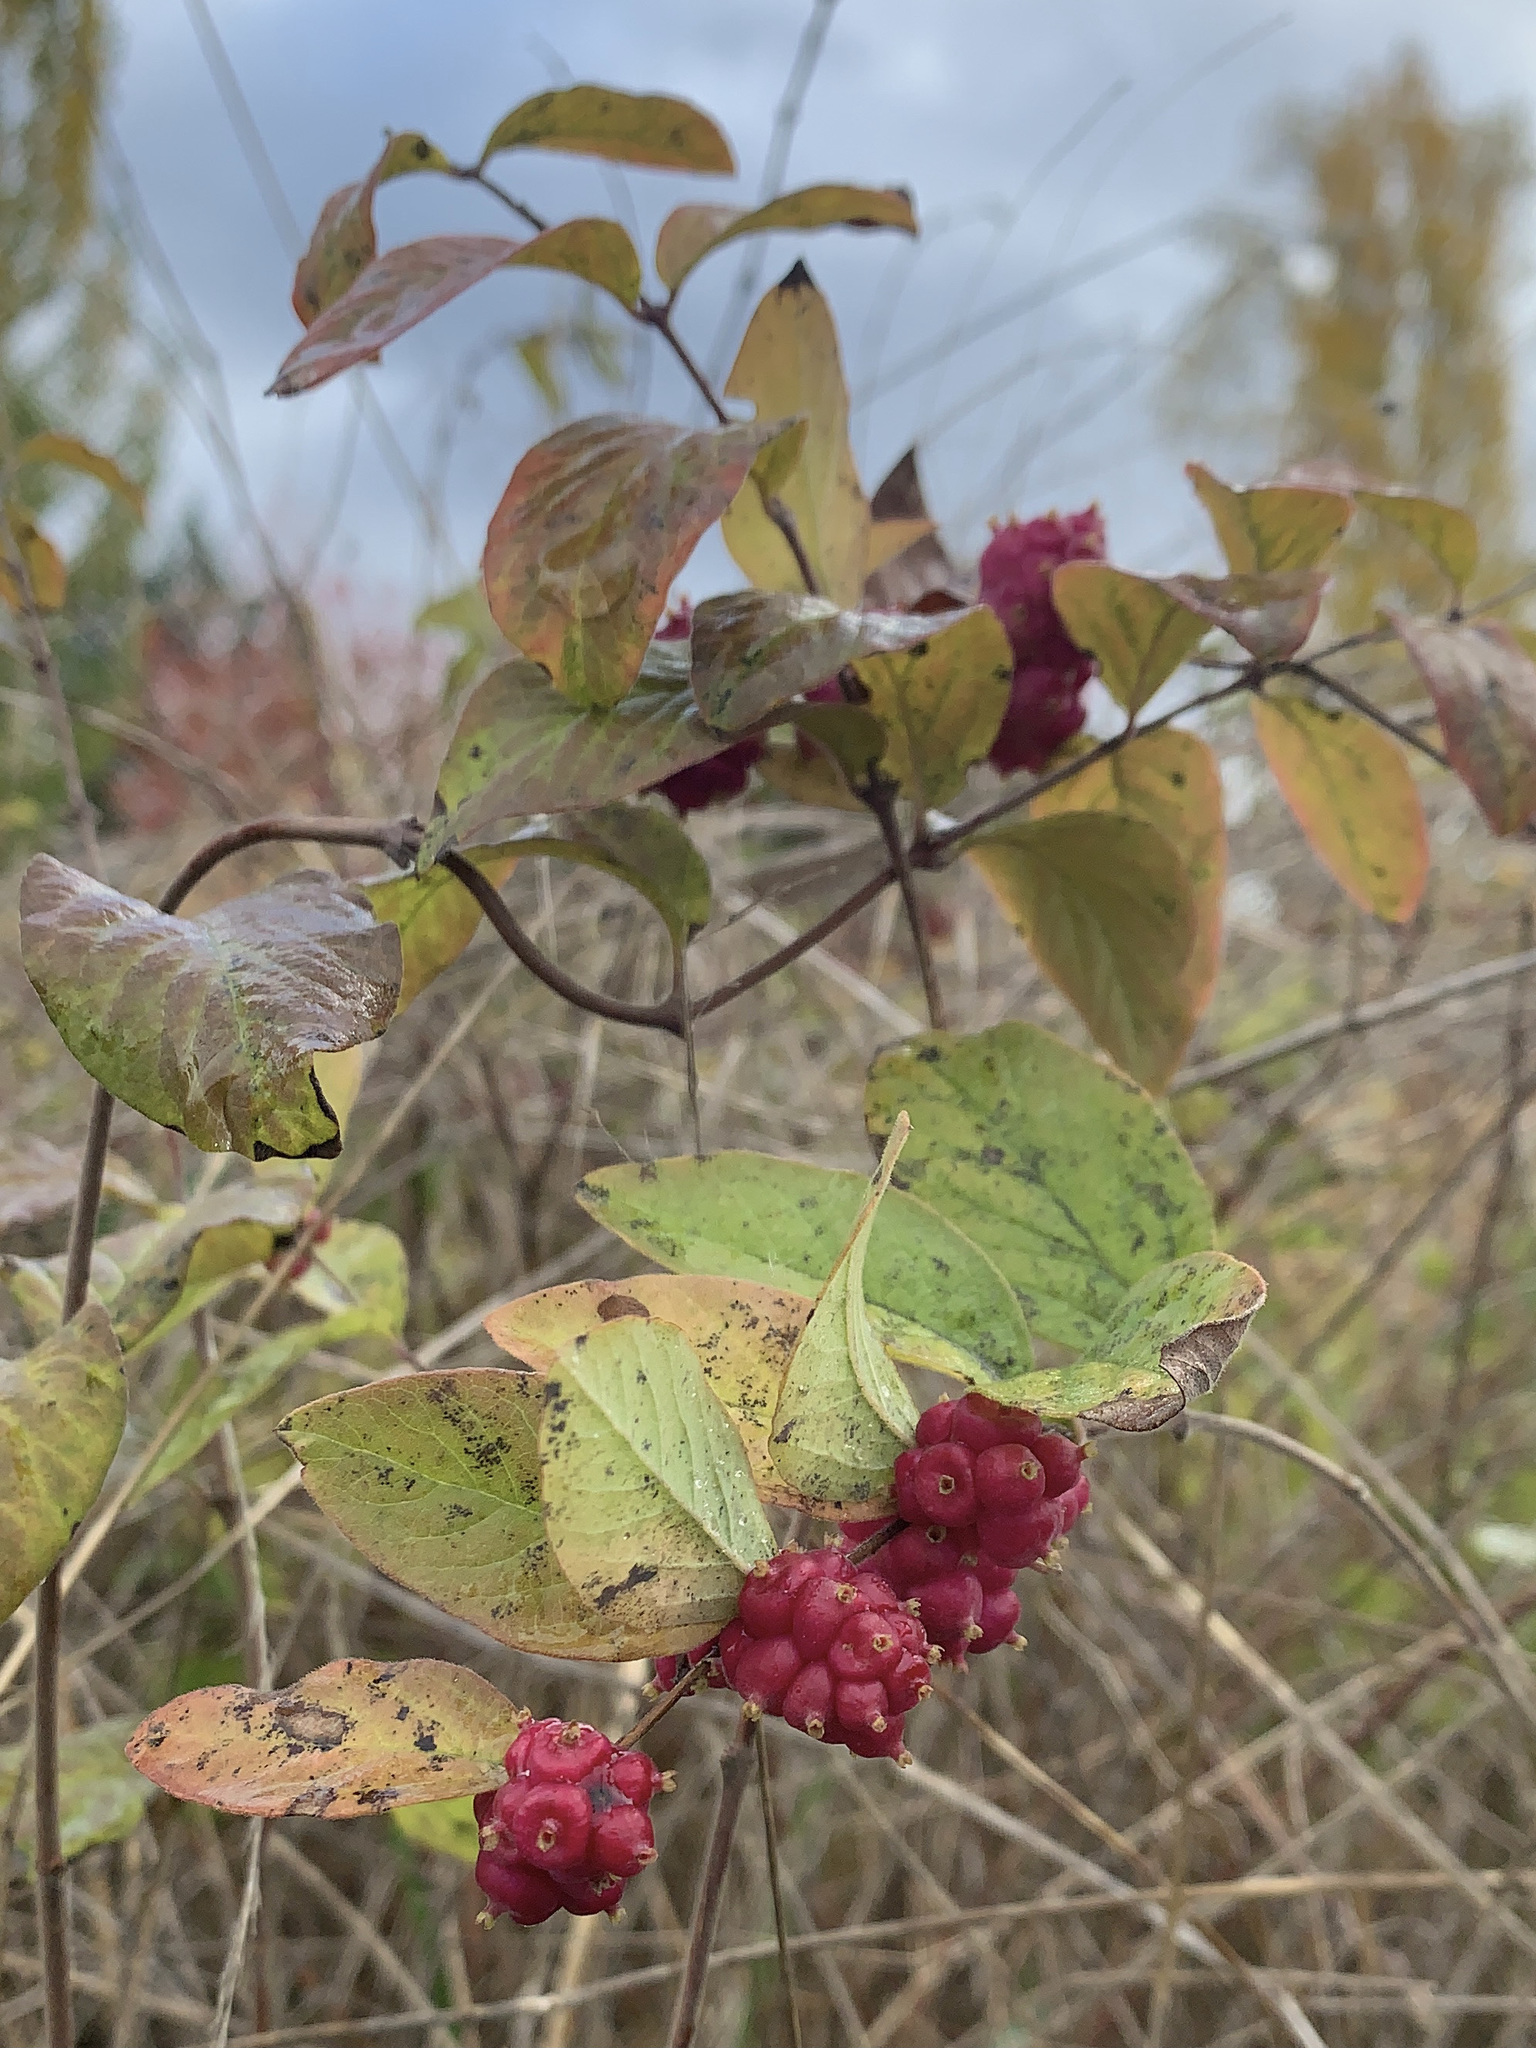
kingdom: Plantae
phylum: Tracheophyta
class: Magnoliopsida
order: Dipsacales
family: Caprifoliaceae
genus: Symphoricarpos
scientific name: Symphoricarpos orbiculatus
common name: Coralberry
